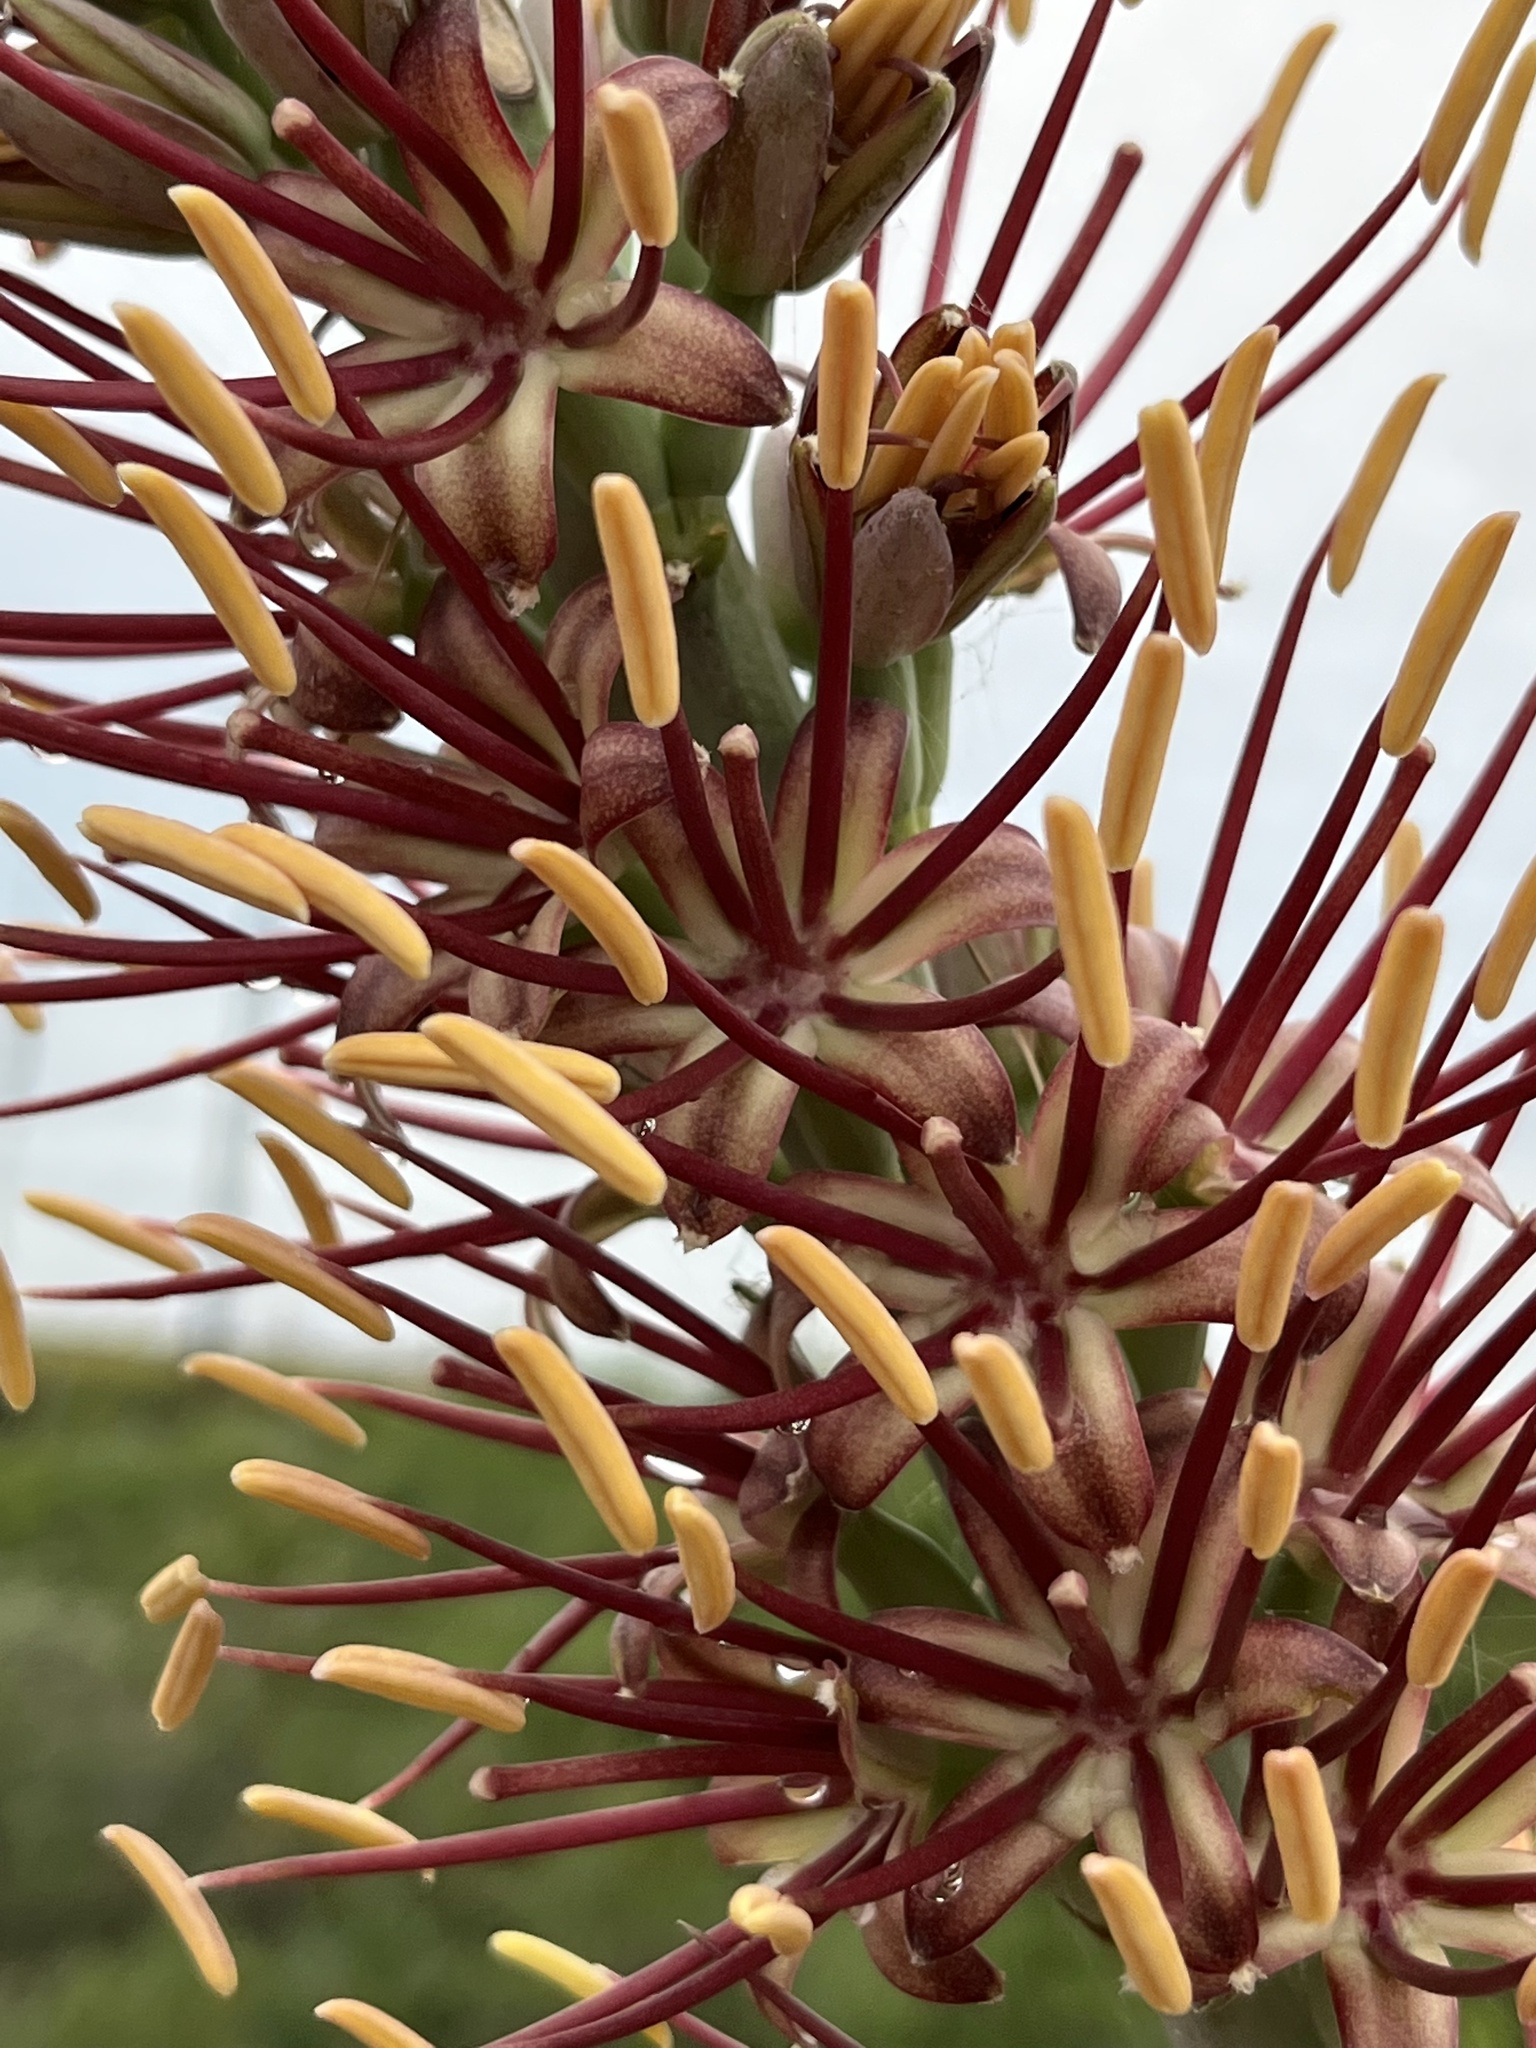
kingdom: Plantae
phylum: Tracheophyta
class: Liliopsida
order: Asparagales
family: Asparagaceae
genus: Agave
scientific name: Agave lechuguilla
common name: Lecheguilla agave
